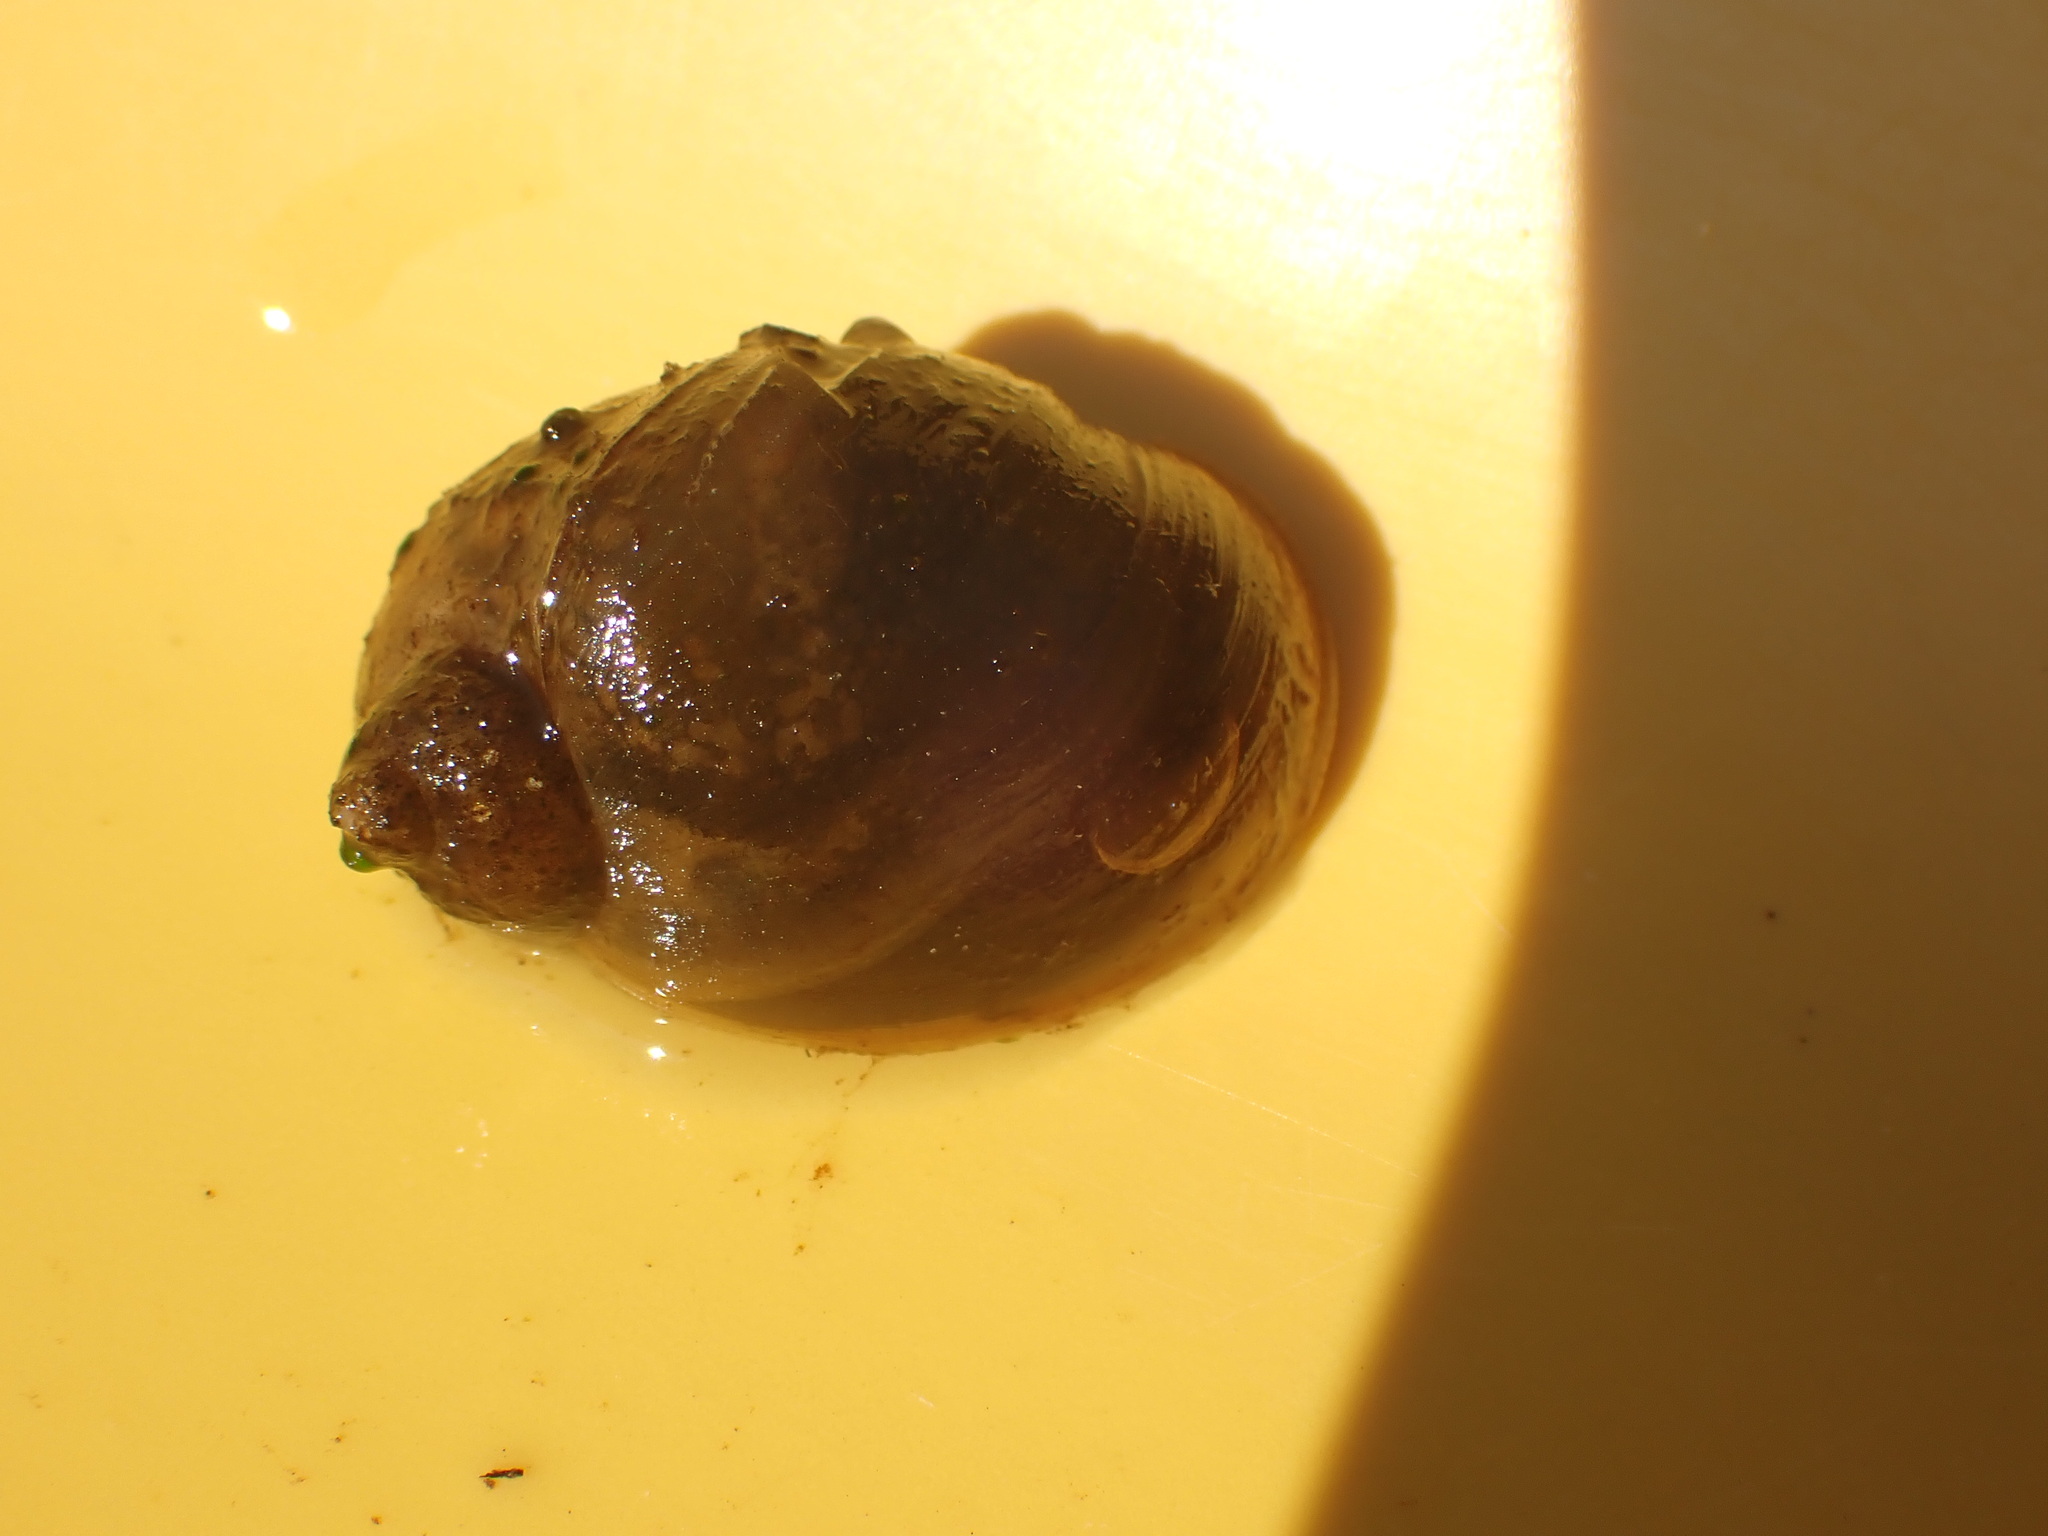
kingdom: Animalia
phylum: Mollusca
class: Gastropoda
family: Lymnaeidae
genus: Radix
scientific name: Radix auricularia
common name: Ear pond snail
